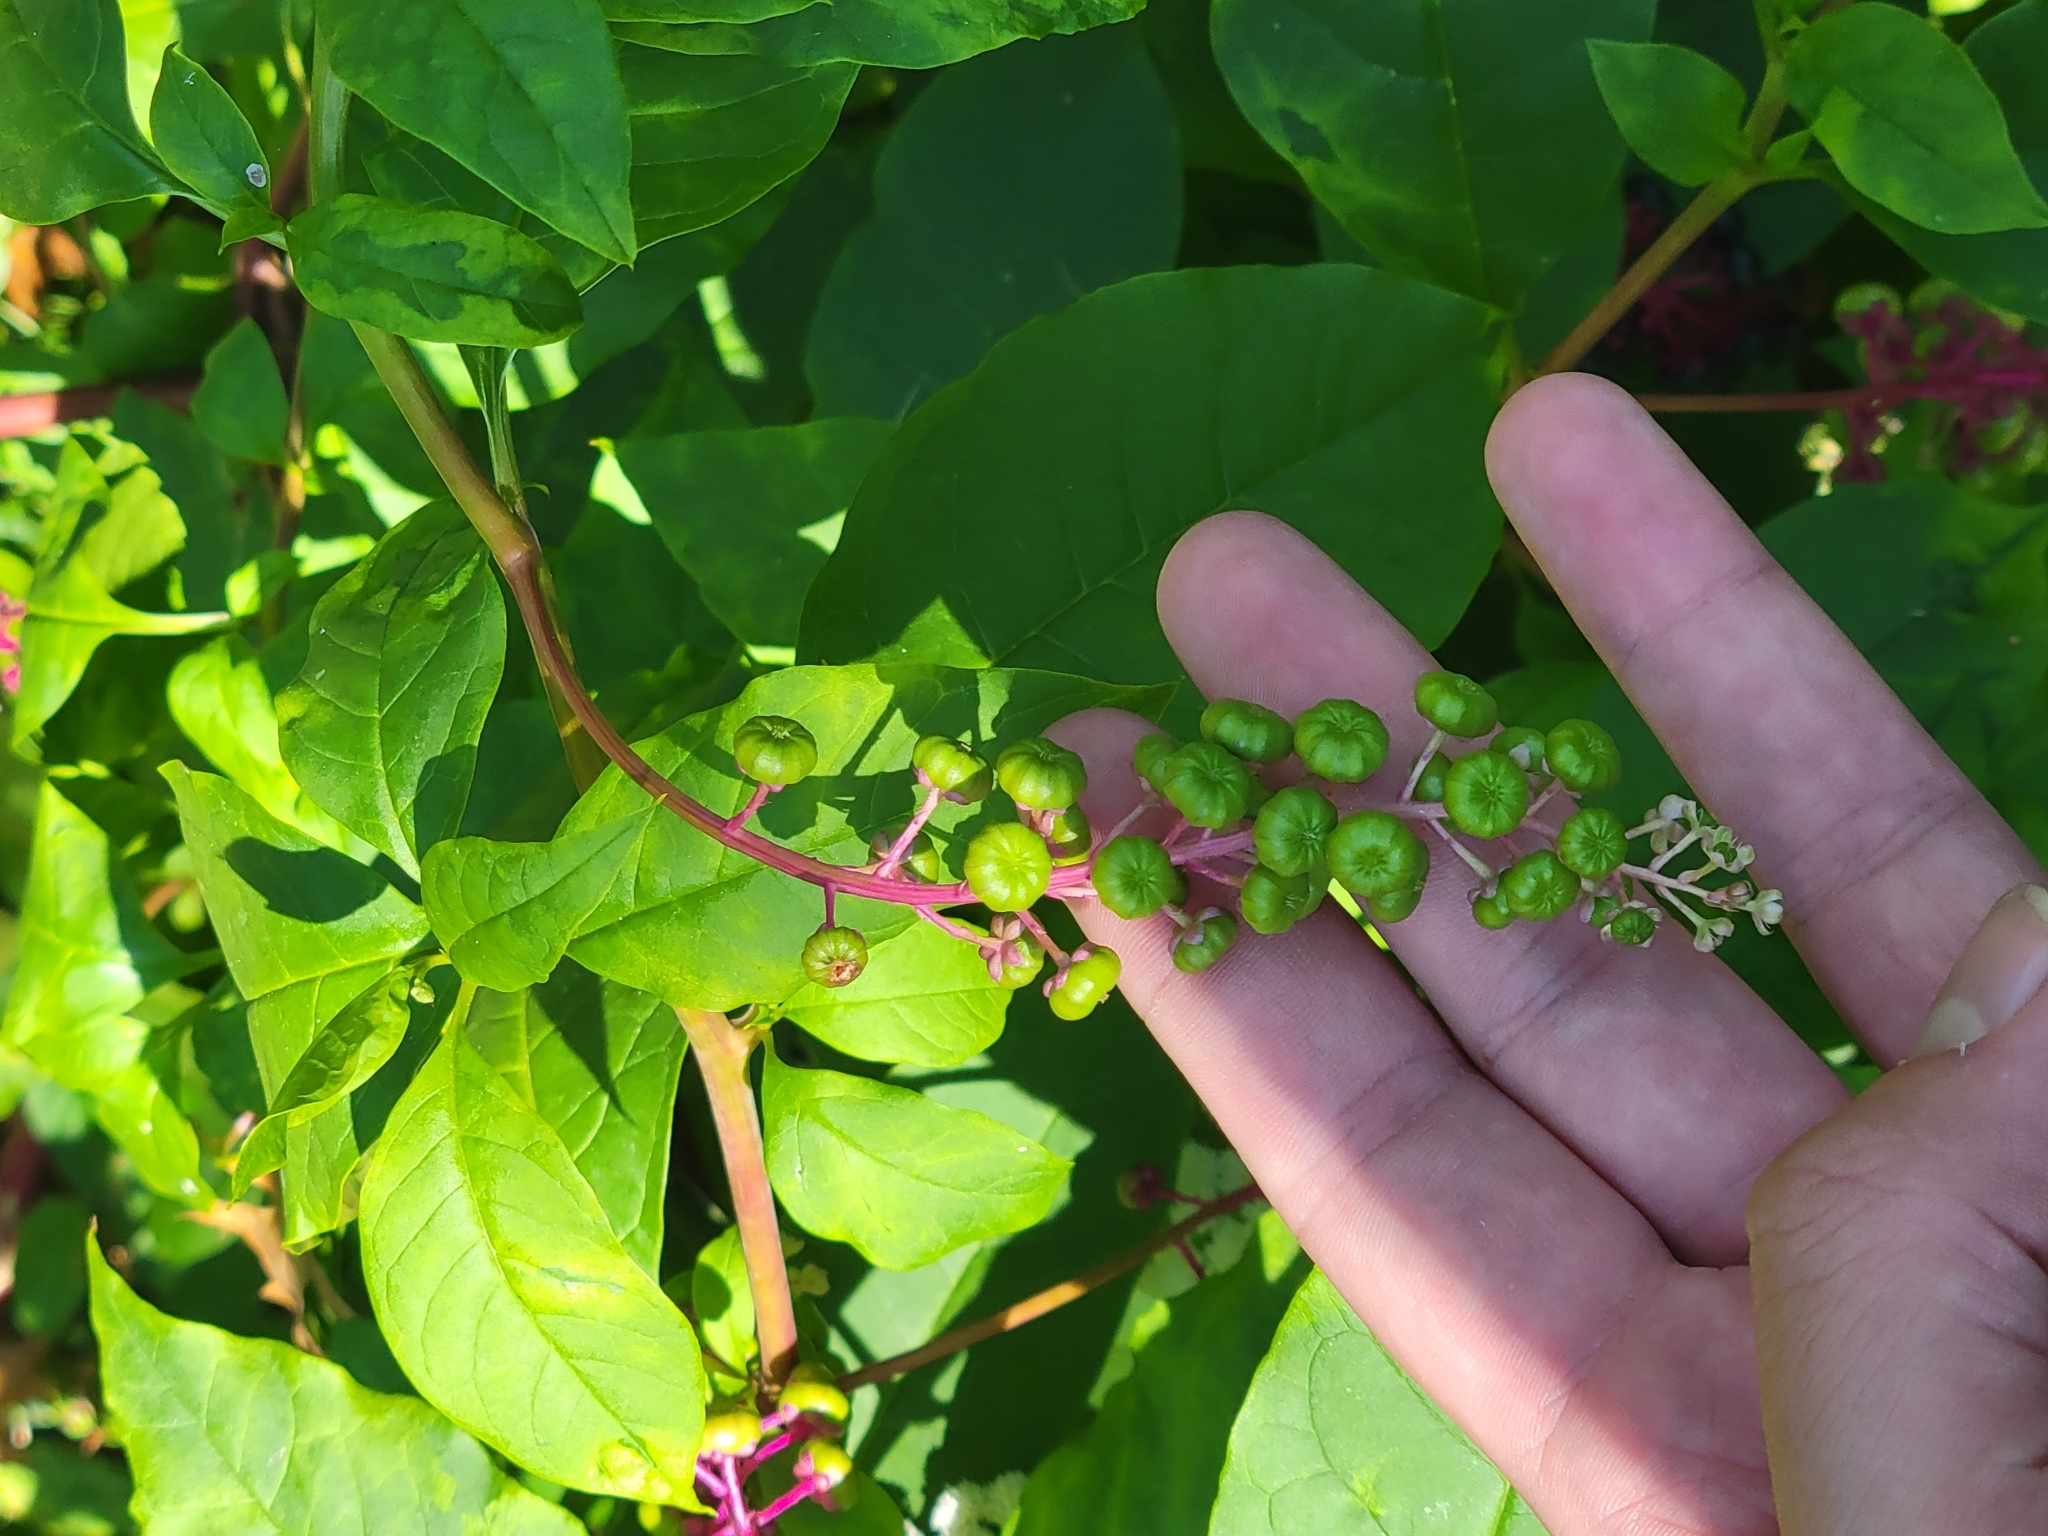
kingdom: Plantae
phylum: Tracheophyta
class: Magnoliopsida
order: Caryophyllales
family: Phytolaccaceae
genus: Phytolacca
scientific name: Phytolacca americana
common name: American pokeweed
